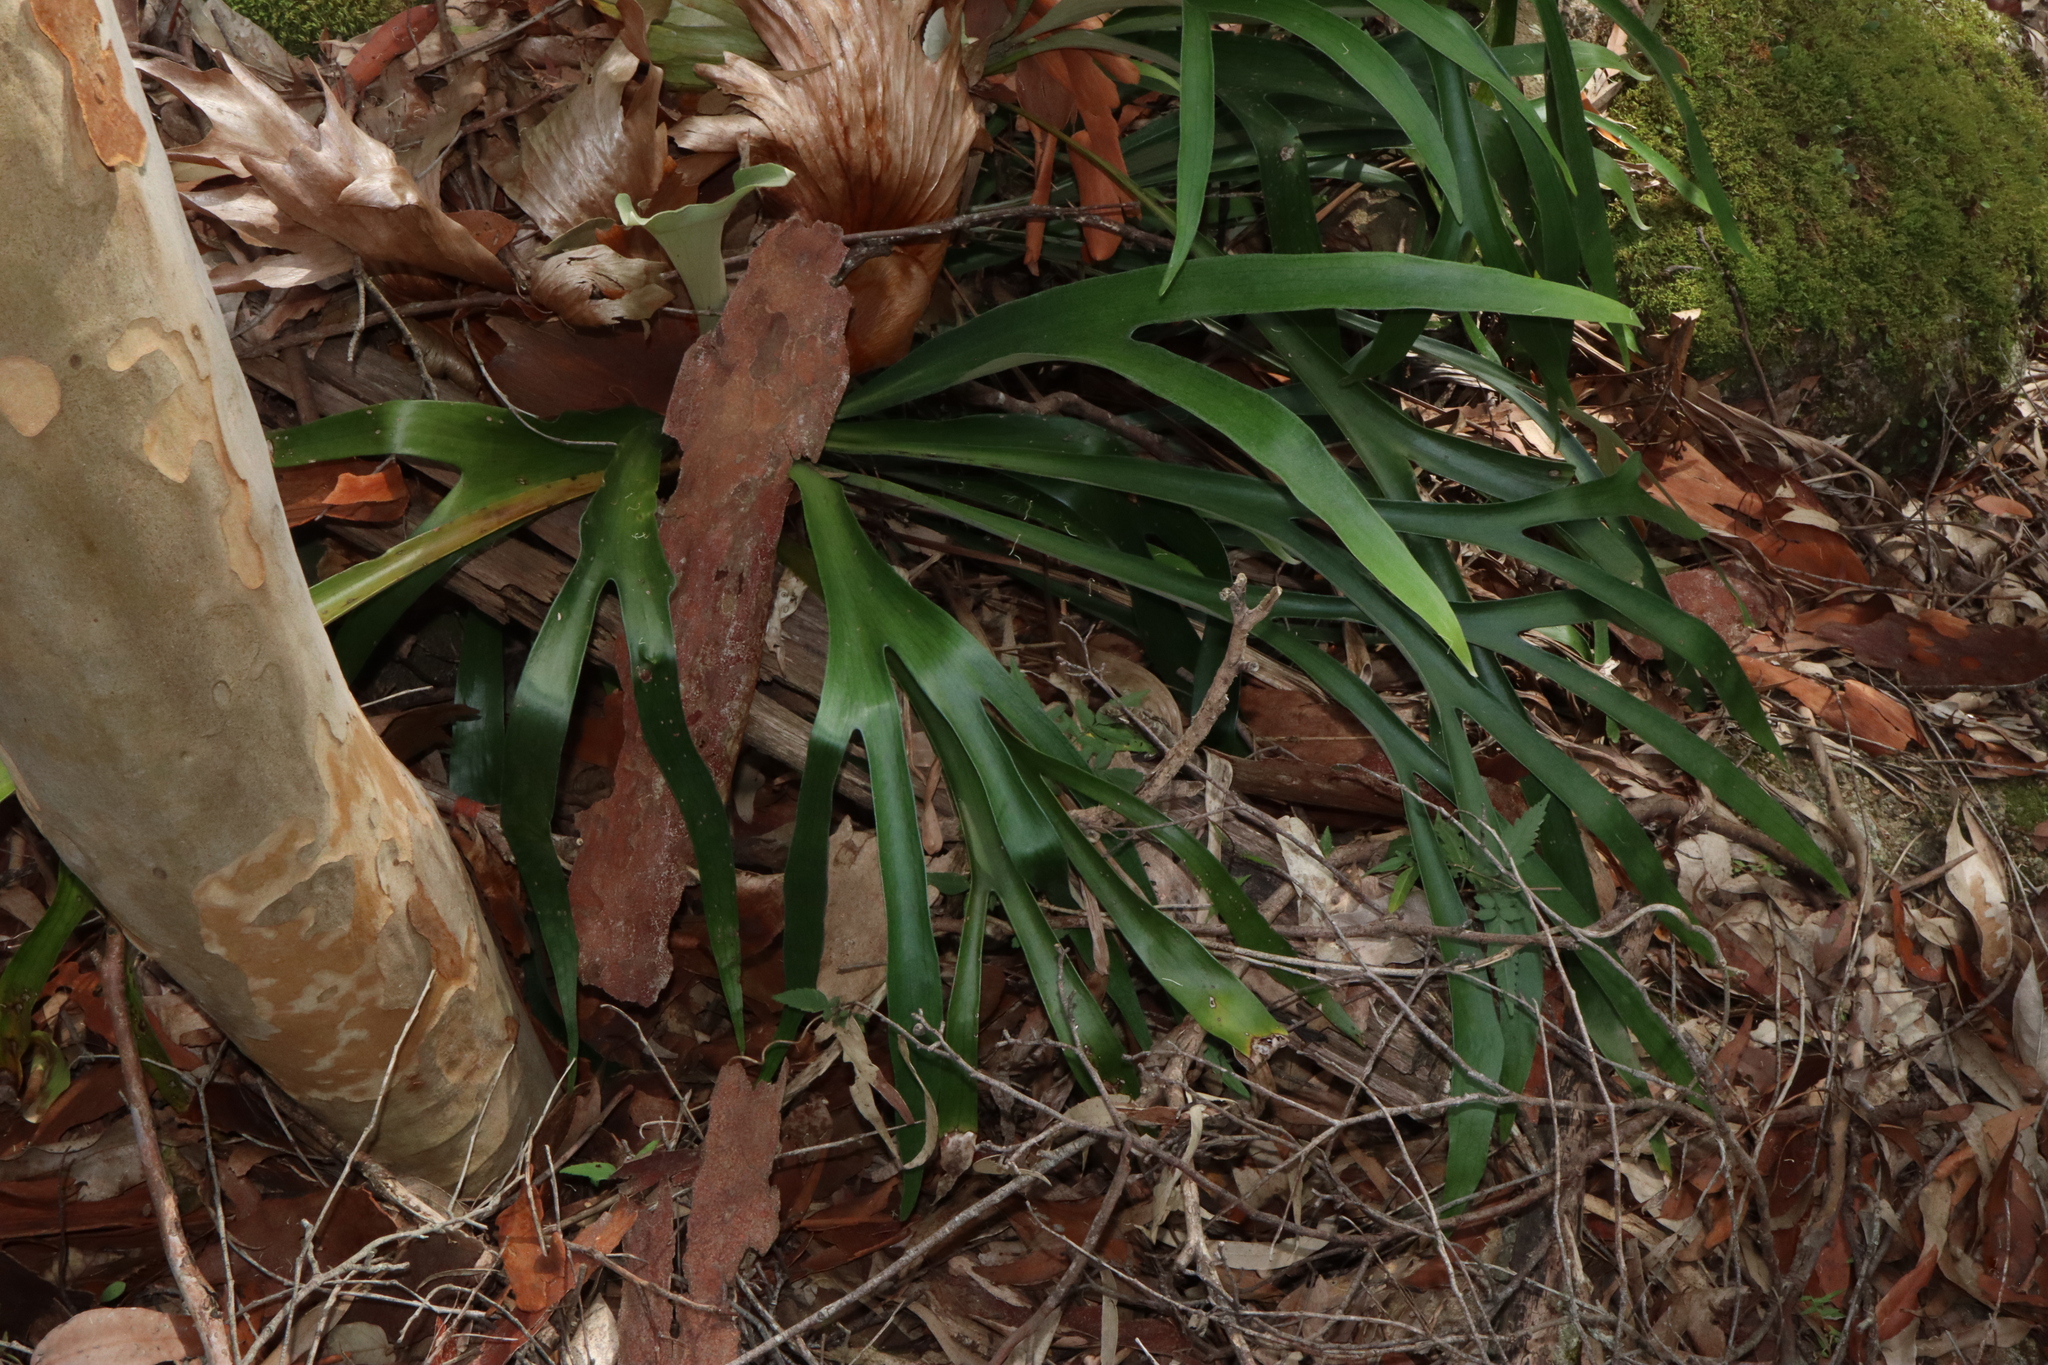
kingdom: Plantae
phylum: Tracheophyta
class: Polypodiopsida
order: Polypodiales
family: Polypodiaceae
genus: Platycerium
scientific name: Platycerium bifurcatum
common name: Elkhorn fern
